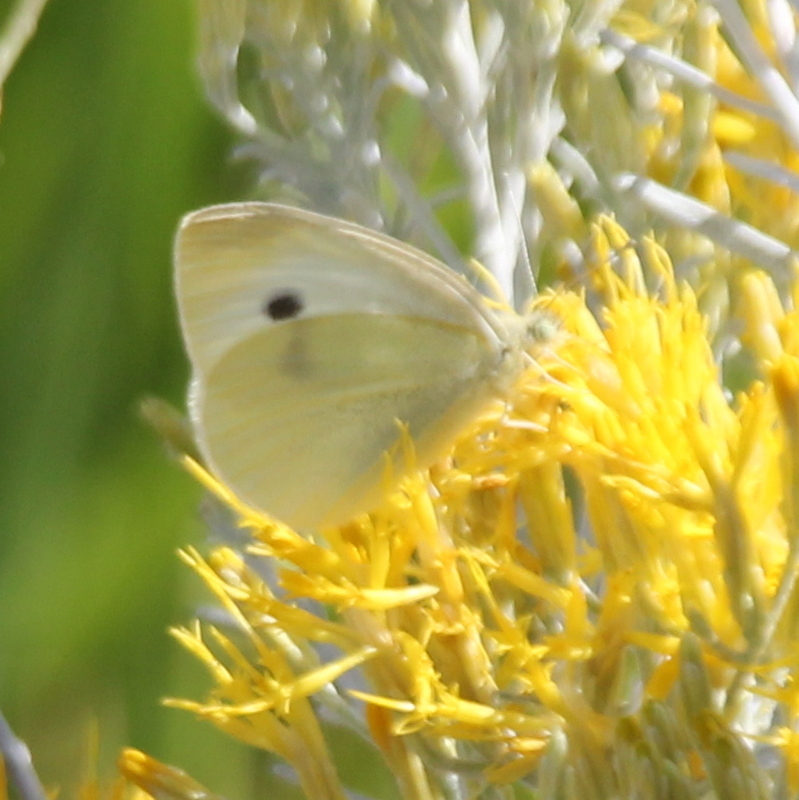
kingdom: Animalia
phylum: Arthropoda
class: Insecta
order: Lepidoptera
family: Pieridae
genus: Pieris
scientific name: Pieris rapae
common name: Small white
